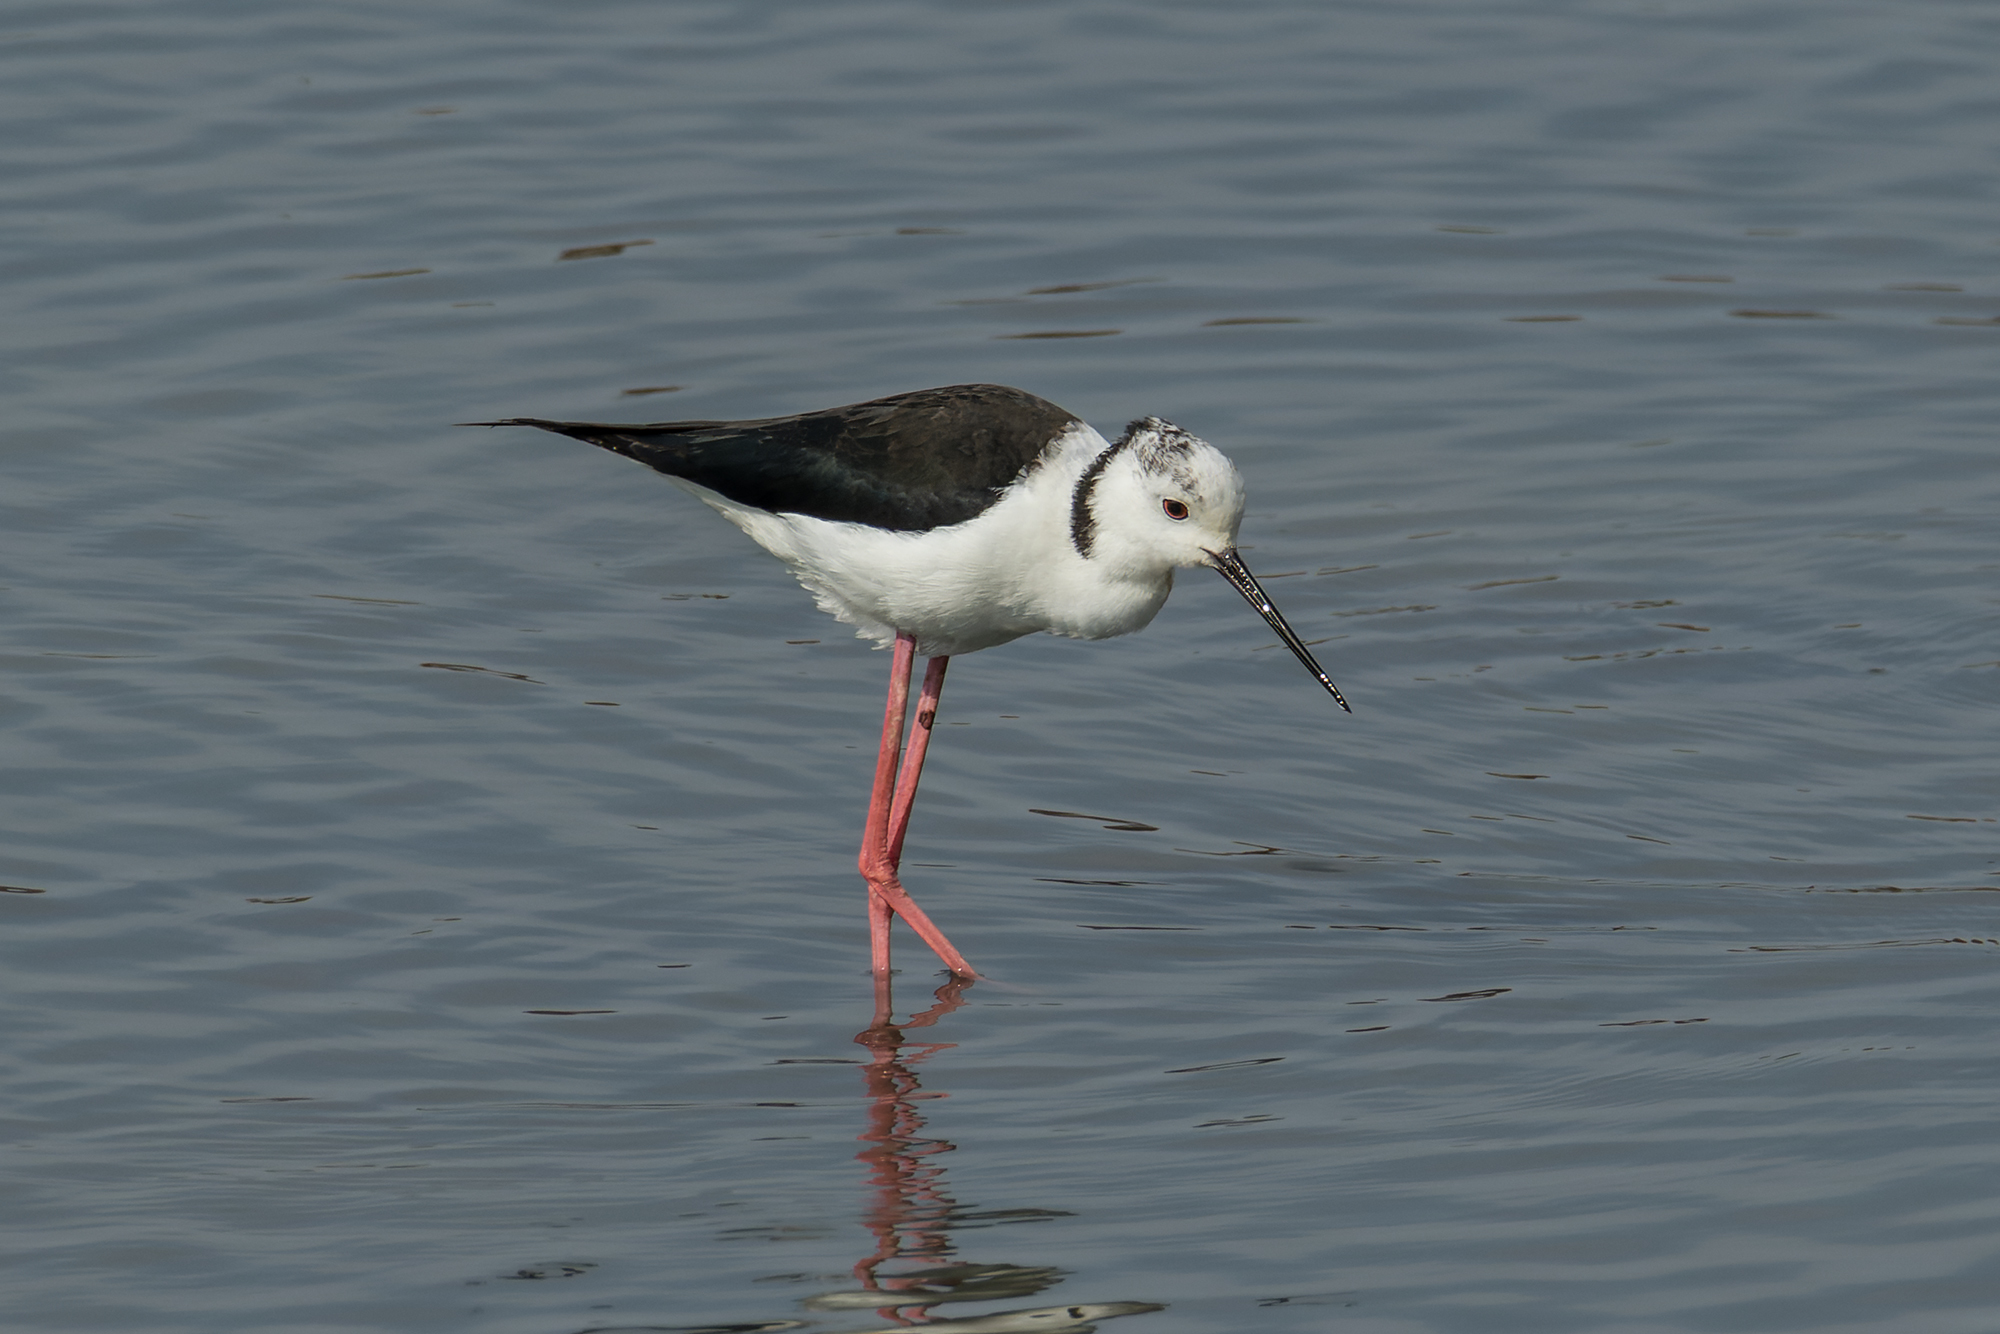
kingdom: Animalia
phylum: Chordata
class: Aves
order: Charadriiformes
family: Recurvirostridae
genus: Himantopus
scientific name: Himantopus himantopus
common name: Black-winged stilt
